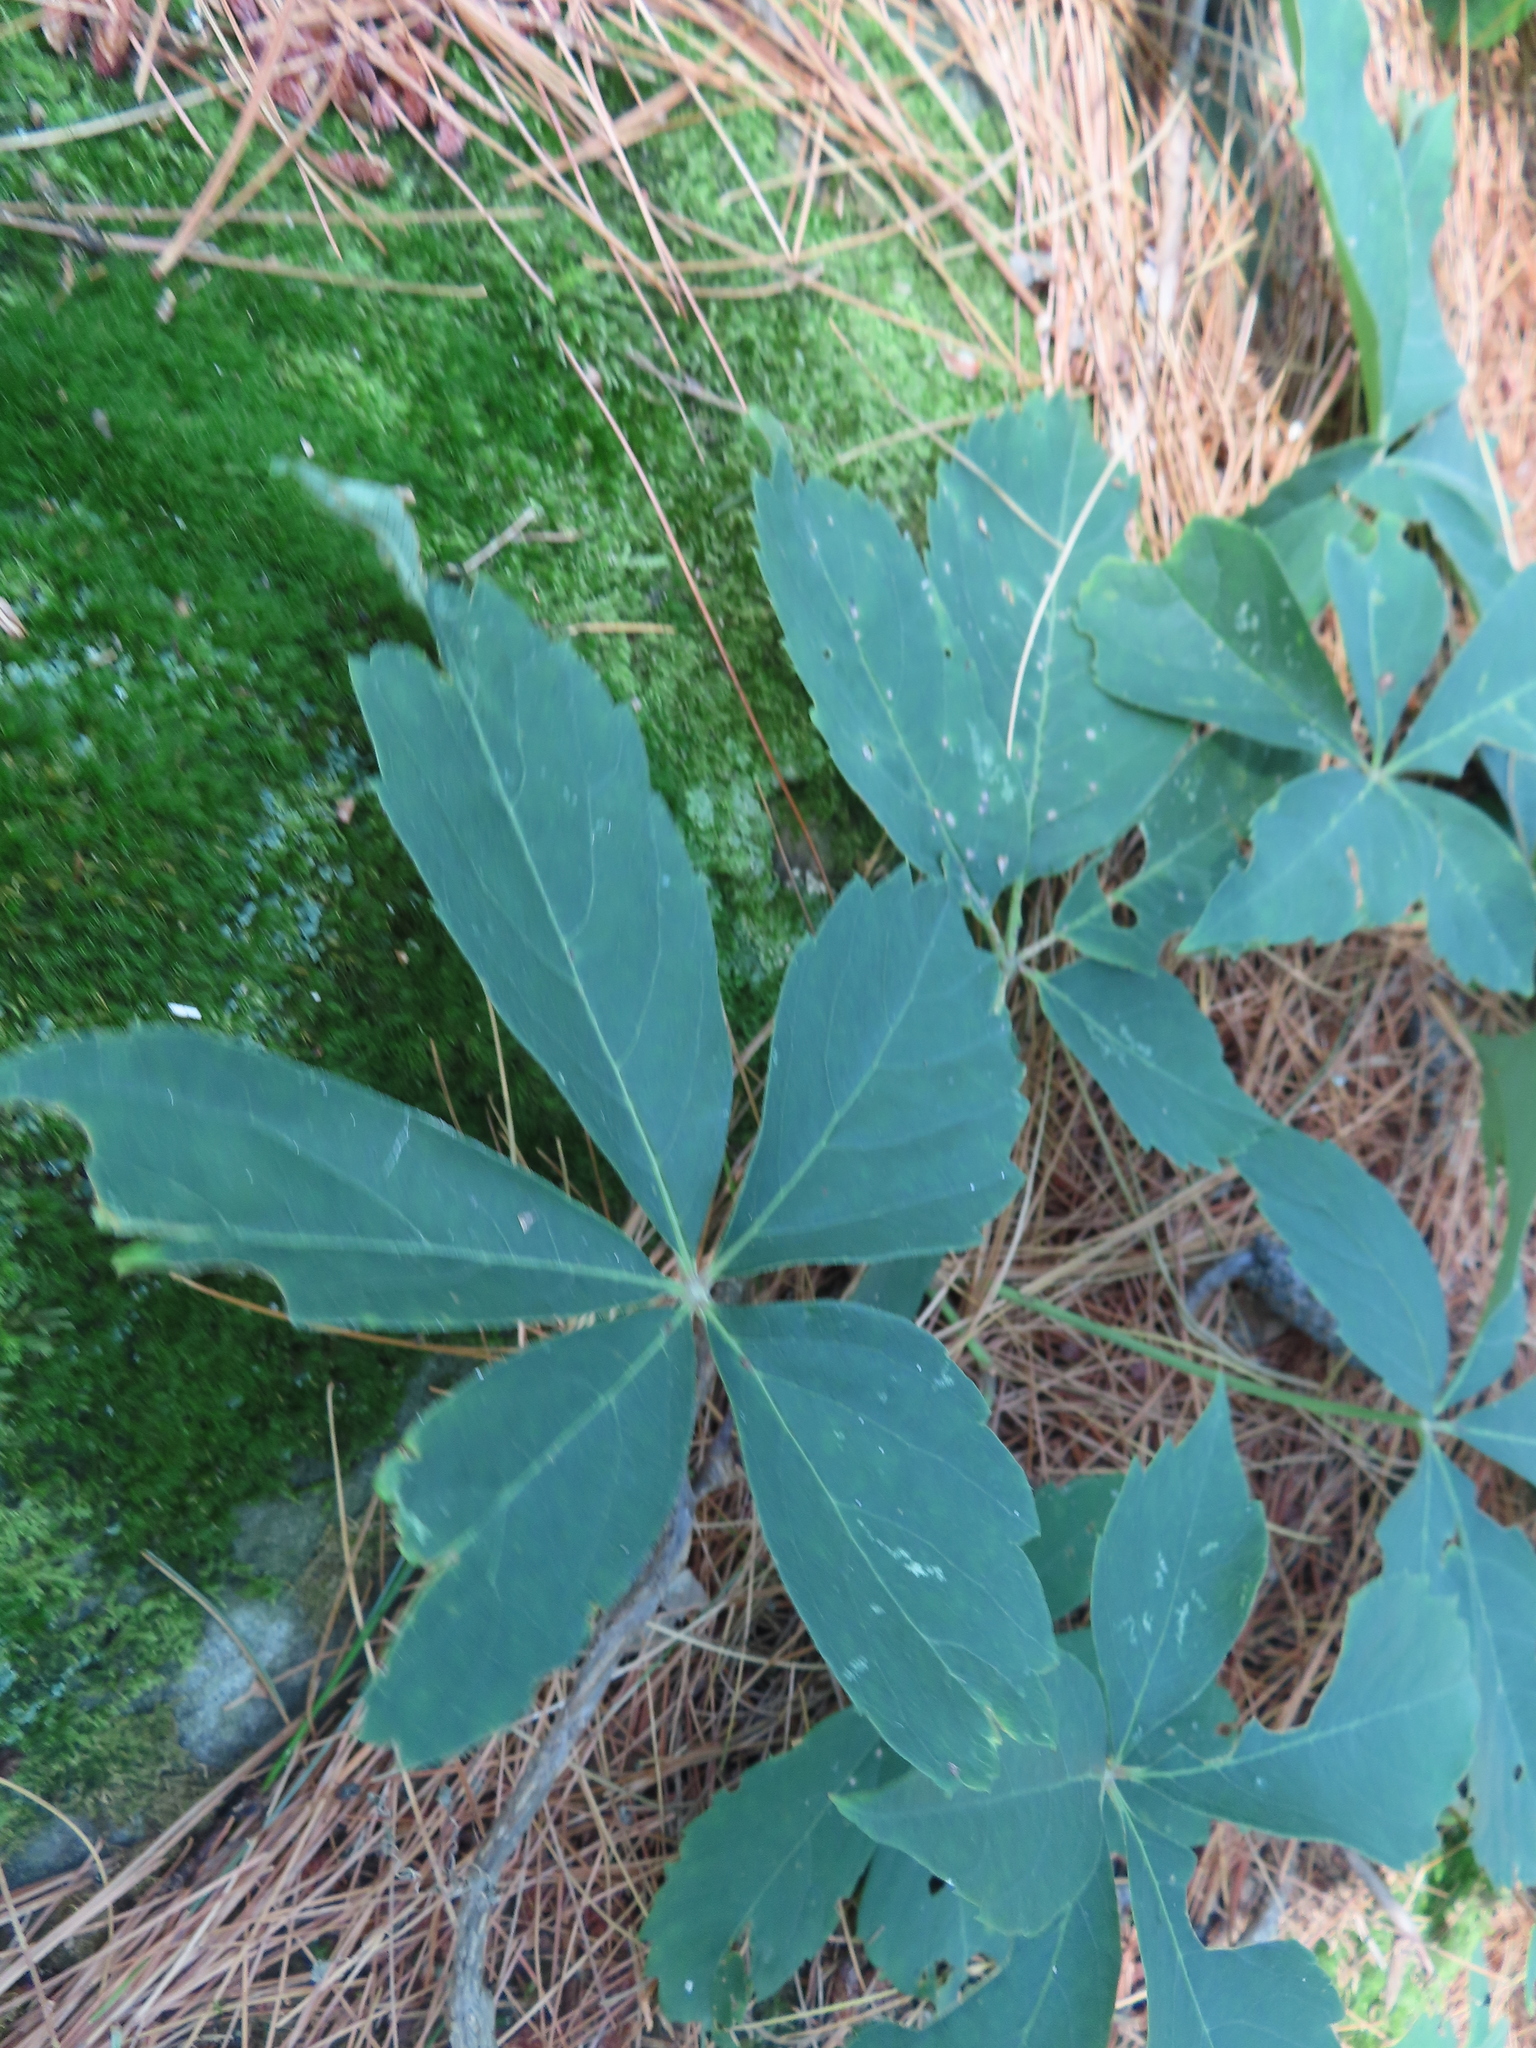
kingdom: Plantae
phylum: Tracheophyta
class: Magnoliopsida
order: Vitales
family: Vitaceae
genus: Parthenocissus
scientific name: Parthenocissus quinquefolia
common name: Virginia-creeper
